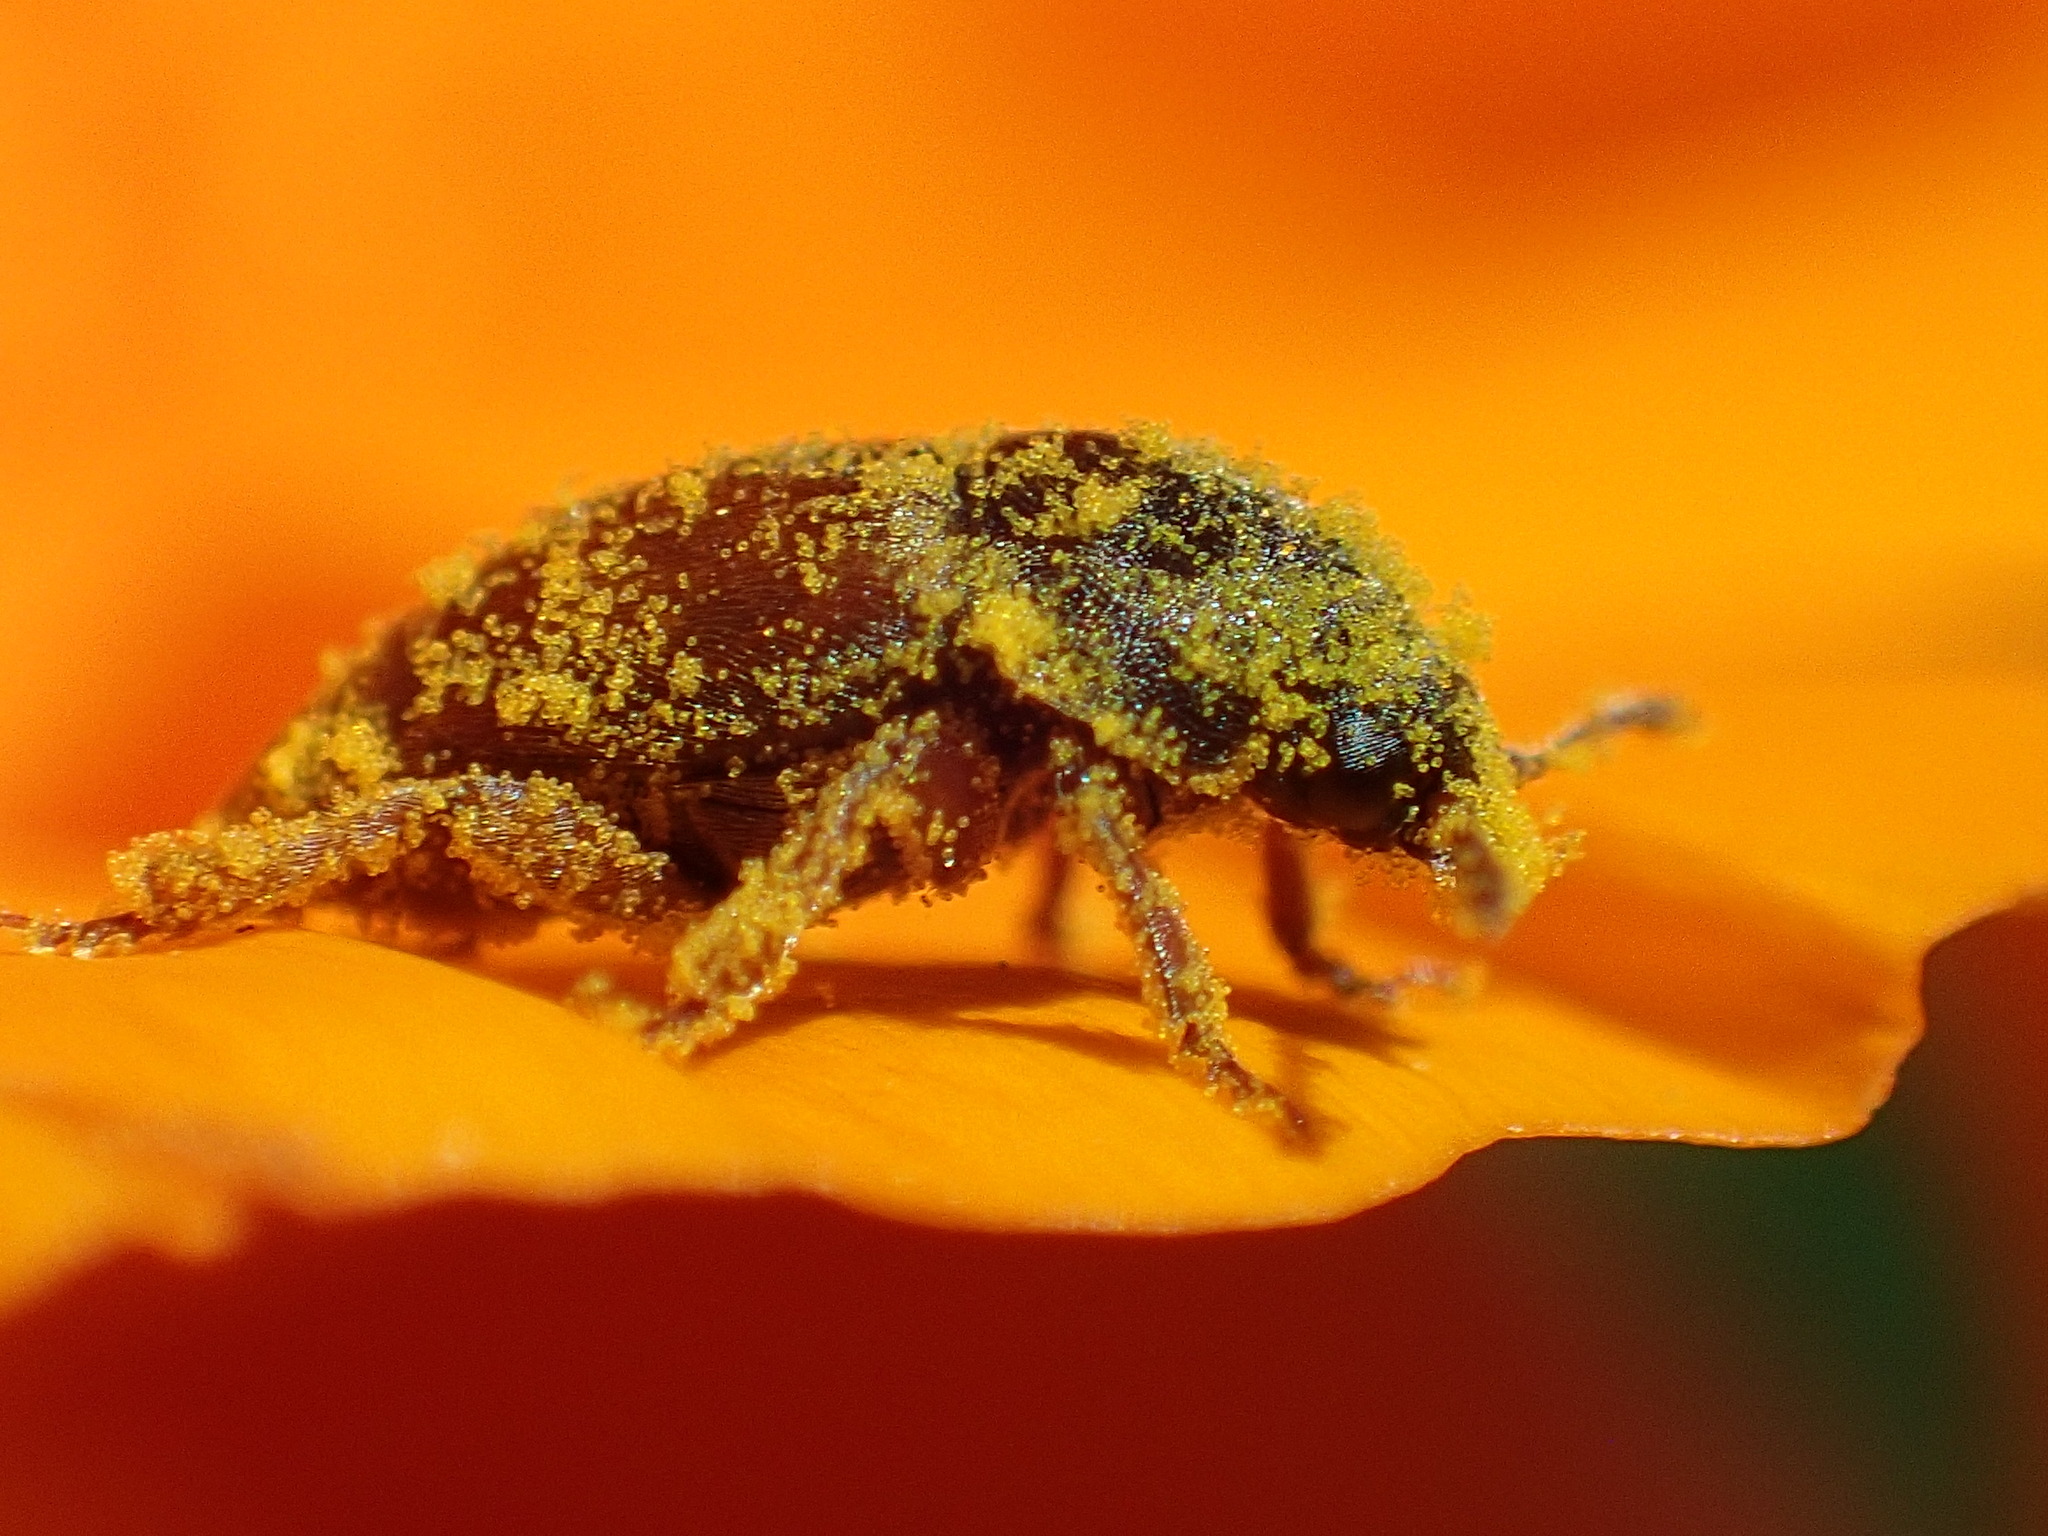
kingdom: Animalia
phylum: Arthropoda
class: Insecta
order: Coleoptera
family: Kateretidae
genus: Amartus
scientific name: Amartus tinctus
